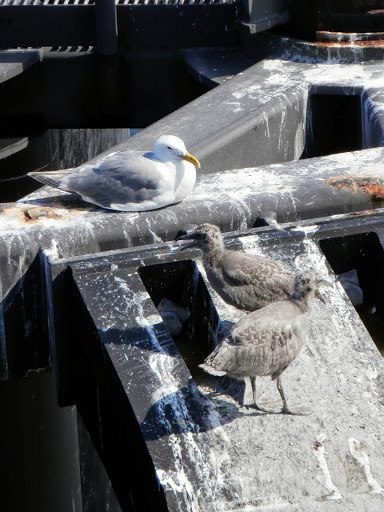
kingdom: Animalia
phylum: Chordata
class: Aves
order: Charadriiformes
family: Laridae
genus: Larus
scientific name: Larus glaucescens
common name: Glaucous-winged gull
